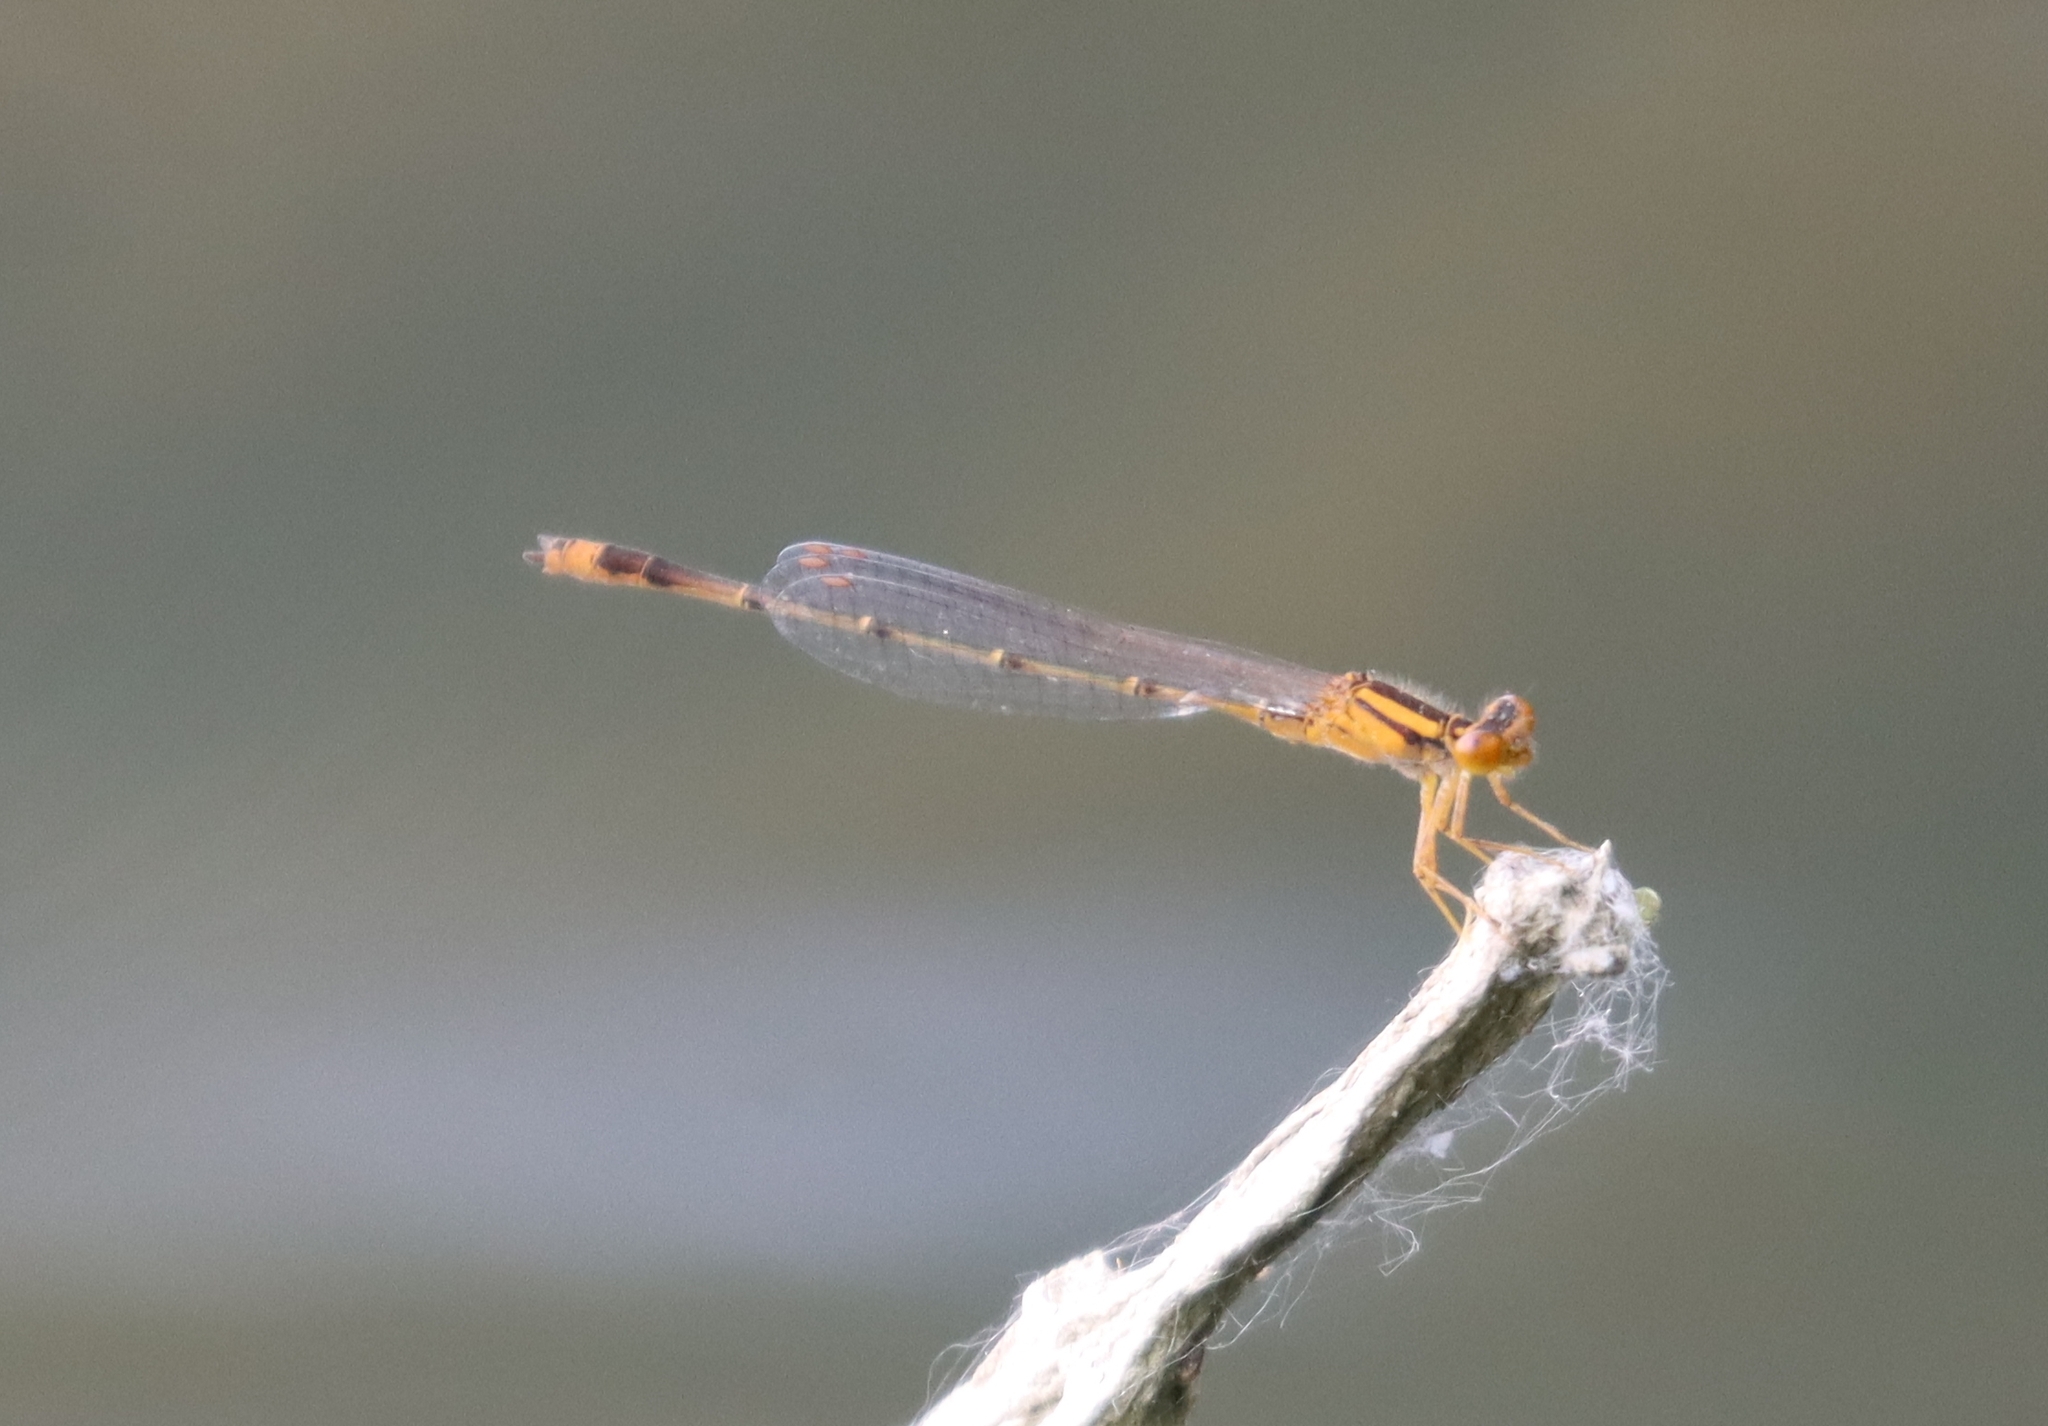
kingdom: Animalia
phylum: Arthropoda
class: Insecta
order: Odonata
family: Coenagrionidae
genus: Enallagma
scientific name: Enallagma signatum
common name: Orange bluet
